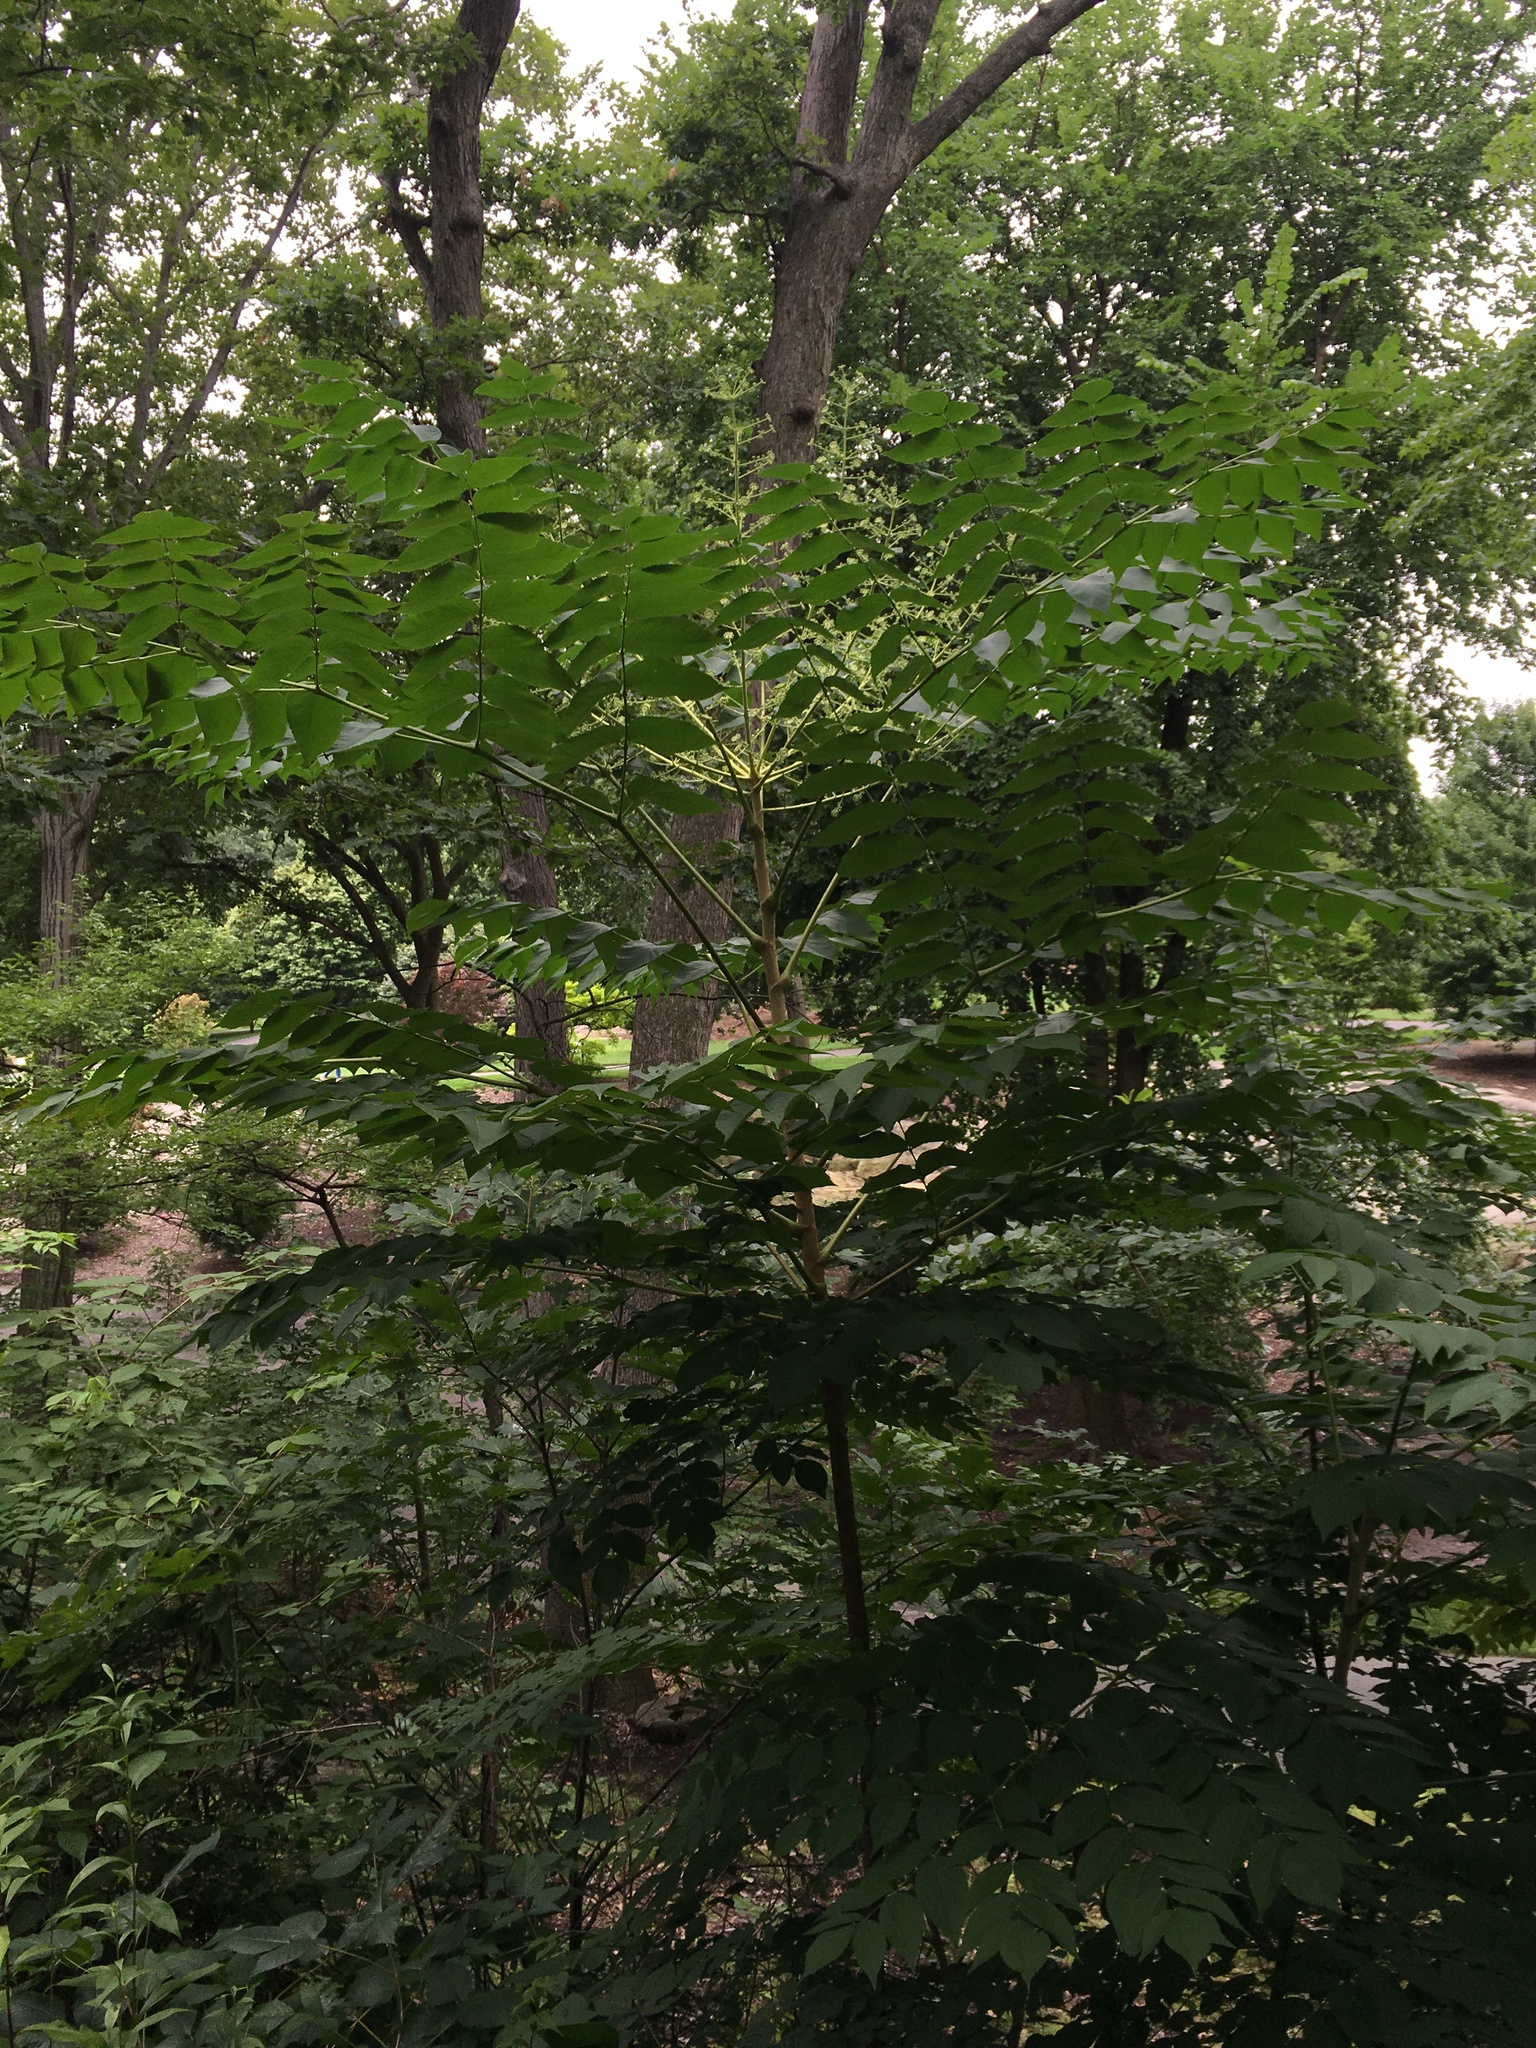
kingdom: Plantae
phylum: Tracheophyta
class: Magnoliopsida
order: Apiales
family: Araliaceae
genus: Aralia
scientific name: Aralia elata
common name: Japanese angelica-tree
